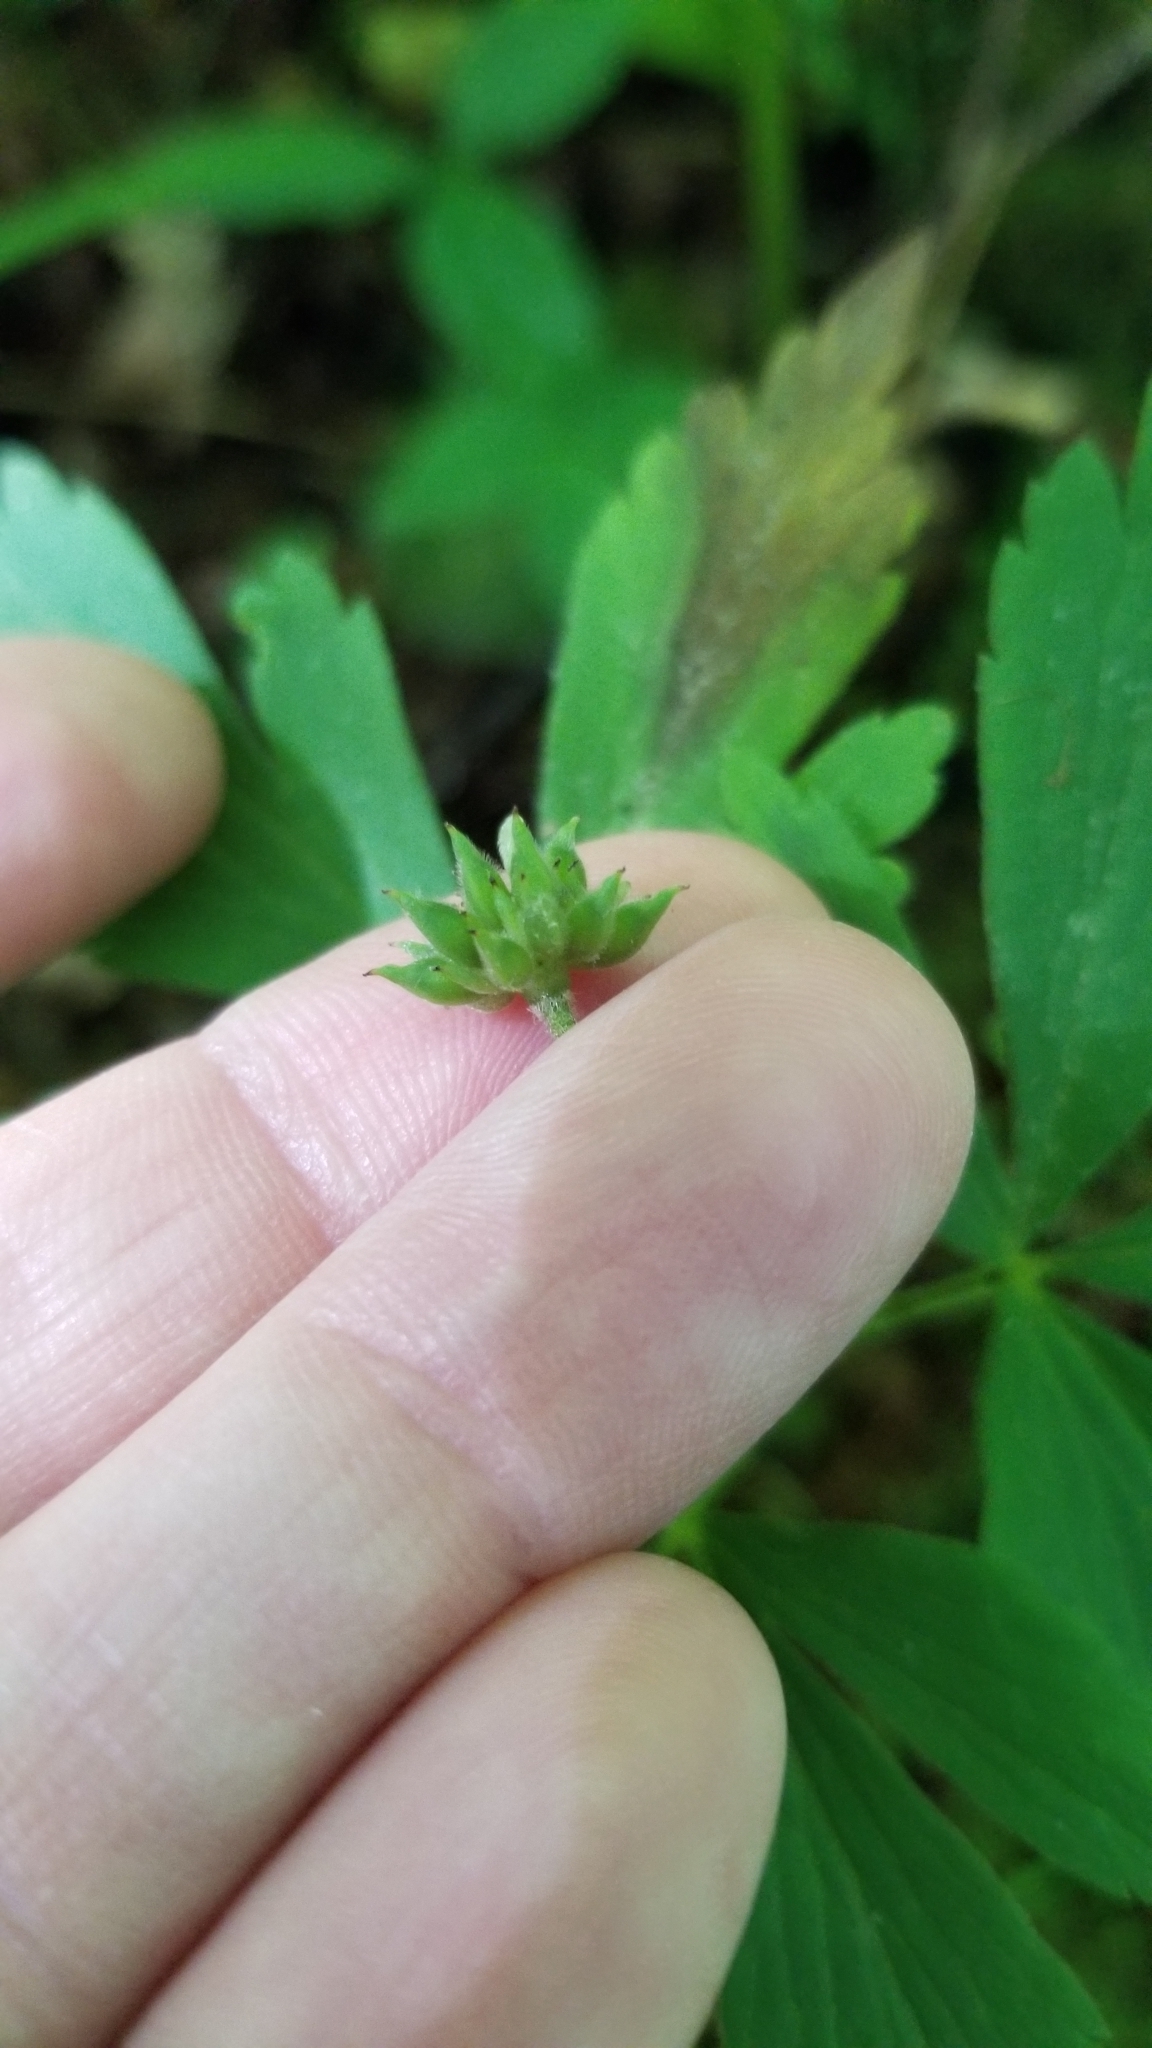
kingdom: Plantae
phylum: Tracheophyta
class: Magnoliopsida
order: Ranunculales
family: Ranunculaceae
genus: Anemone
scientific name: Anemone quinquefolia
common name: Wood anemone
